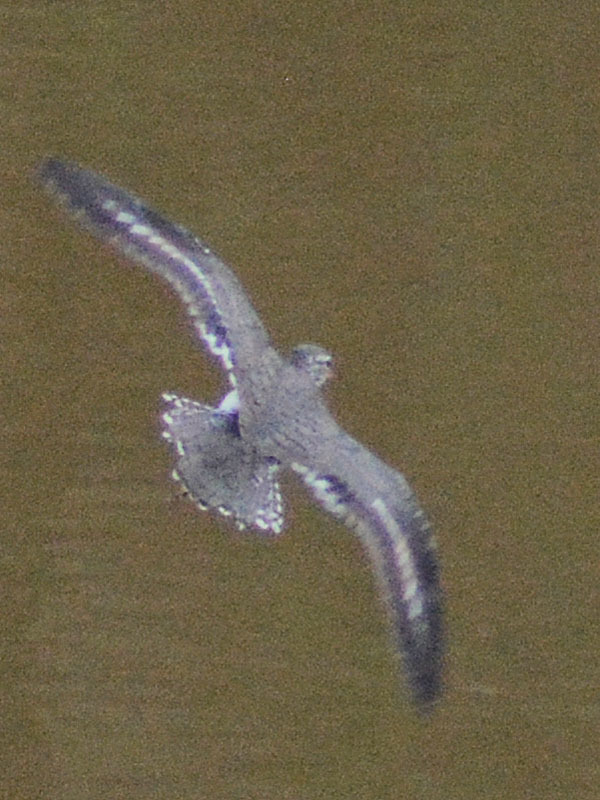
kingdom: Animalia
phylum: Chordata
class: Aves
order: Charadriiformes
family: Scolopacidae
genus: Actitis
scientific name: Actitis macularius
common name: Spotted sandpiper
